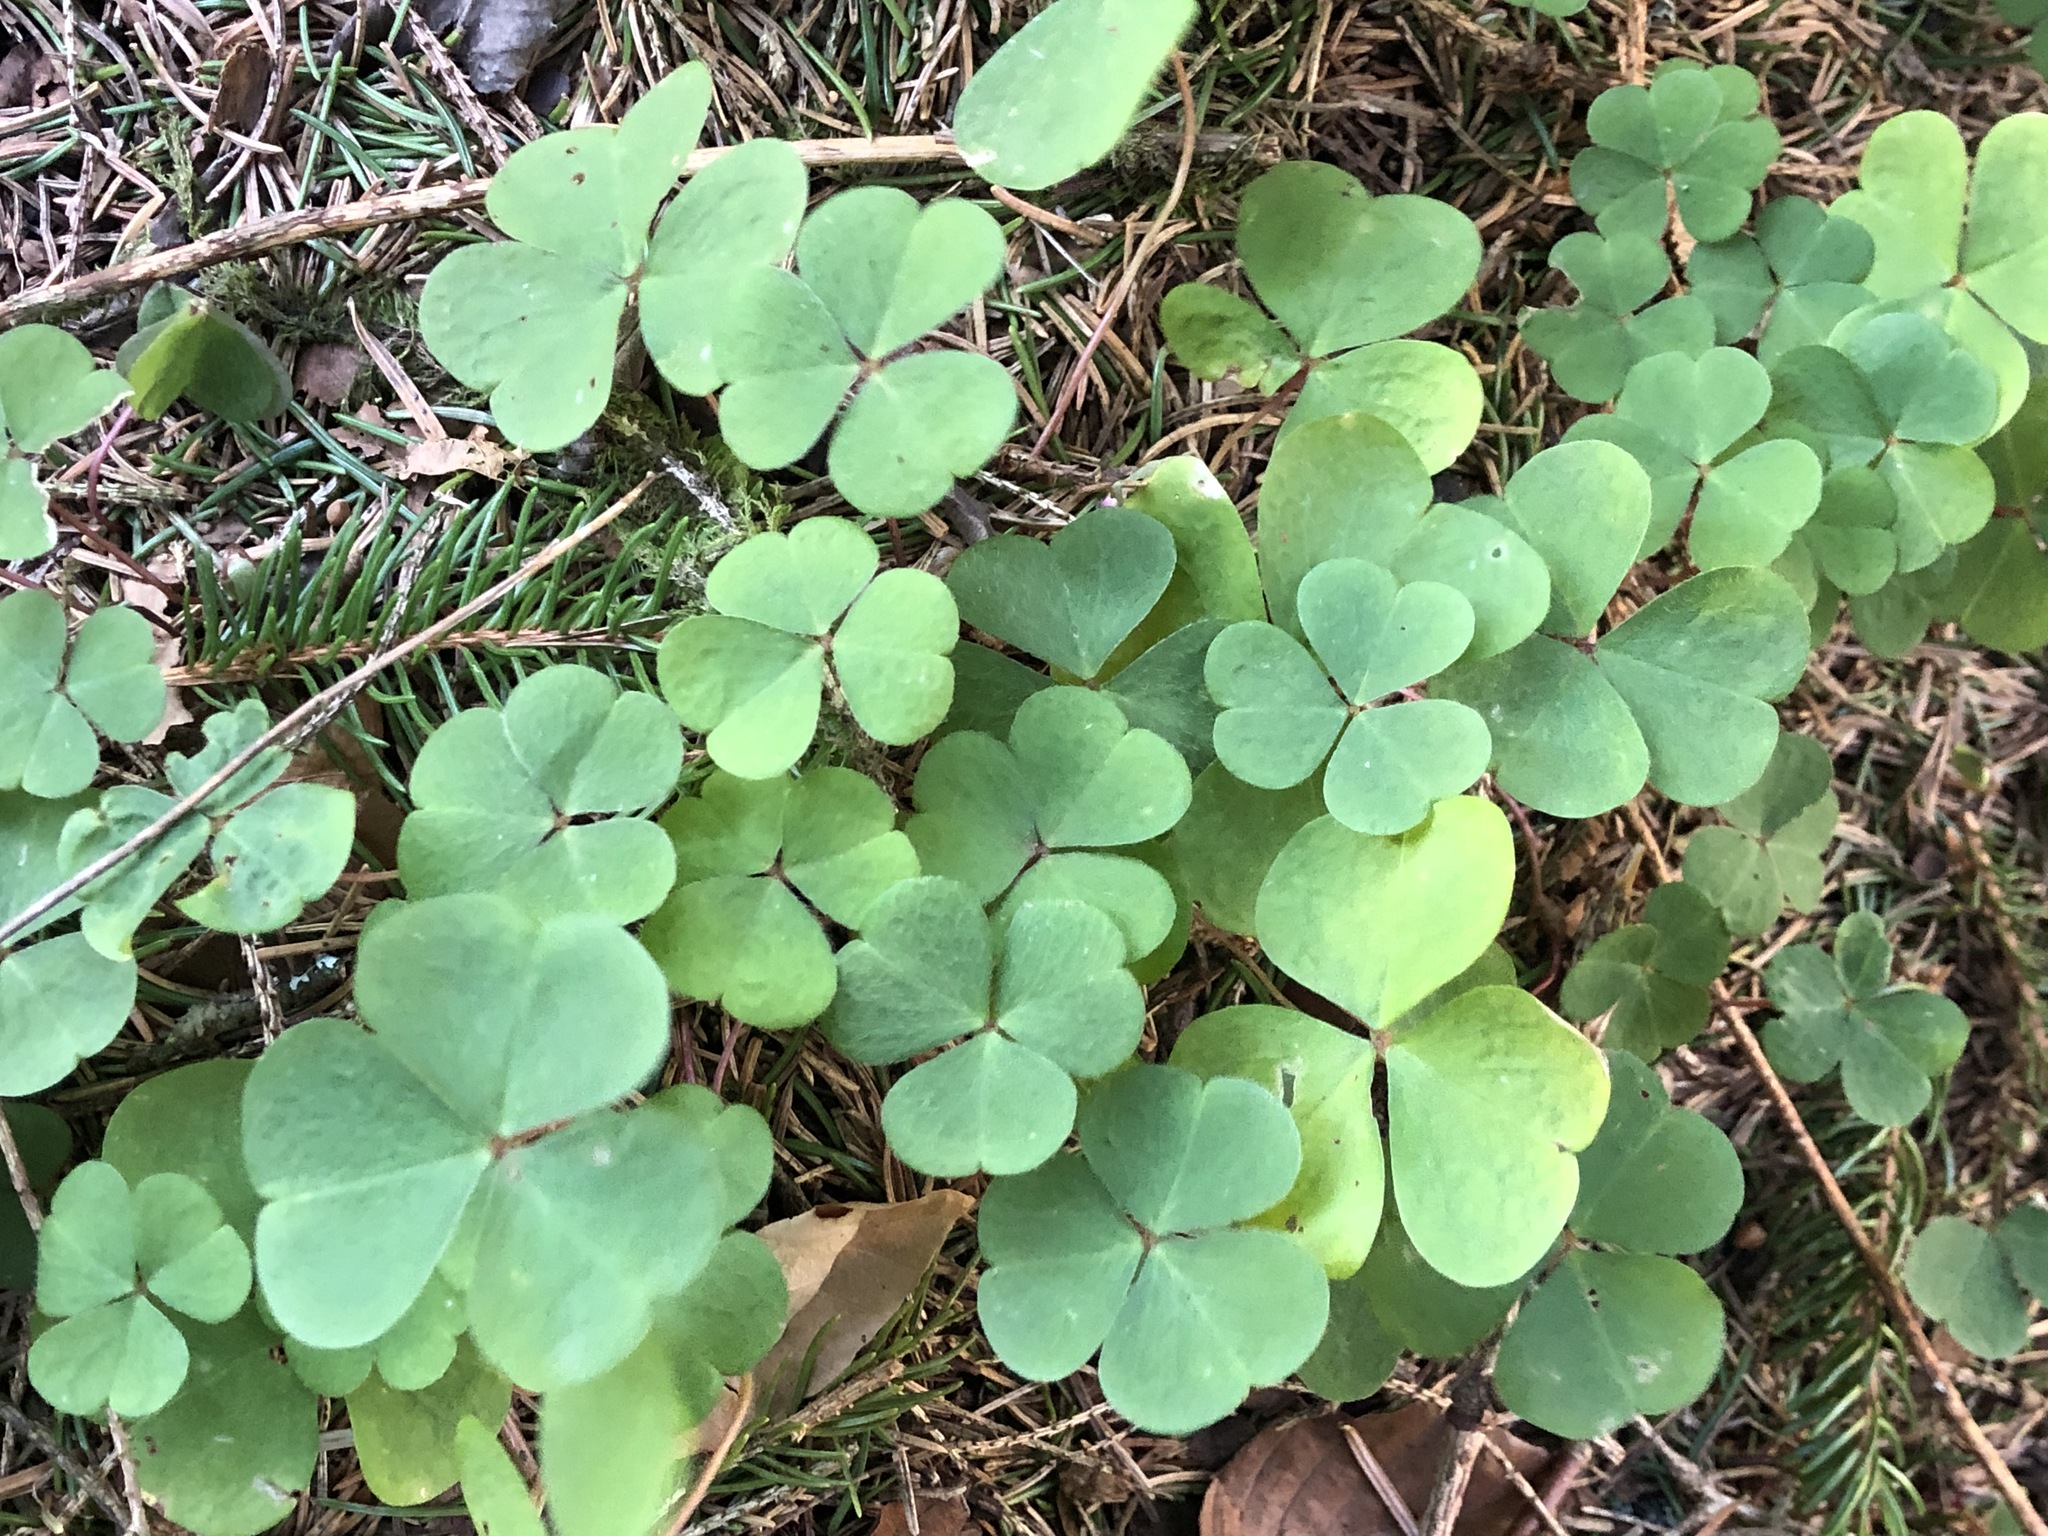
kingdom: Plantae
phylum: Tracheophyta
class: Magnoliopsida
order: Oxalidales
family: Oxalidaceae
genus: Oxalis
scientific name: Oxalis acetosella
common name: Wood-sorrel
